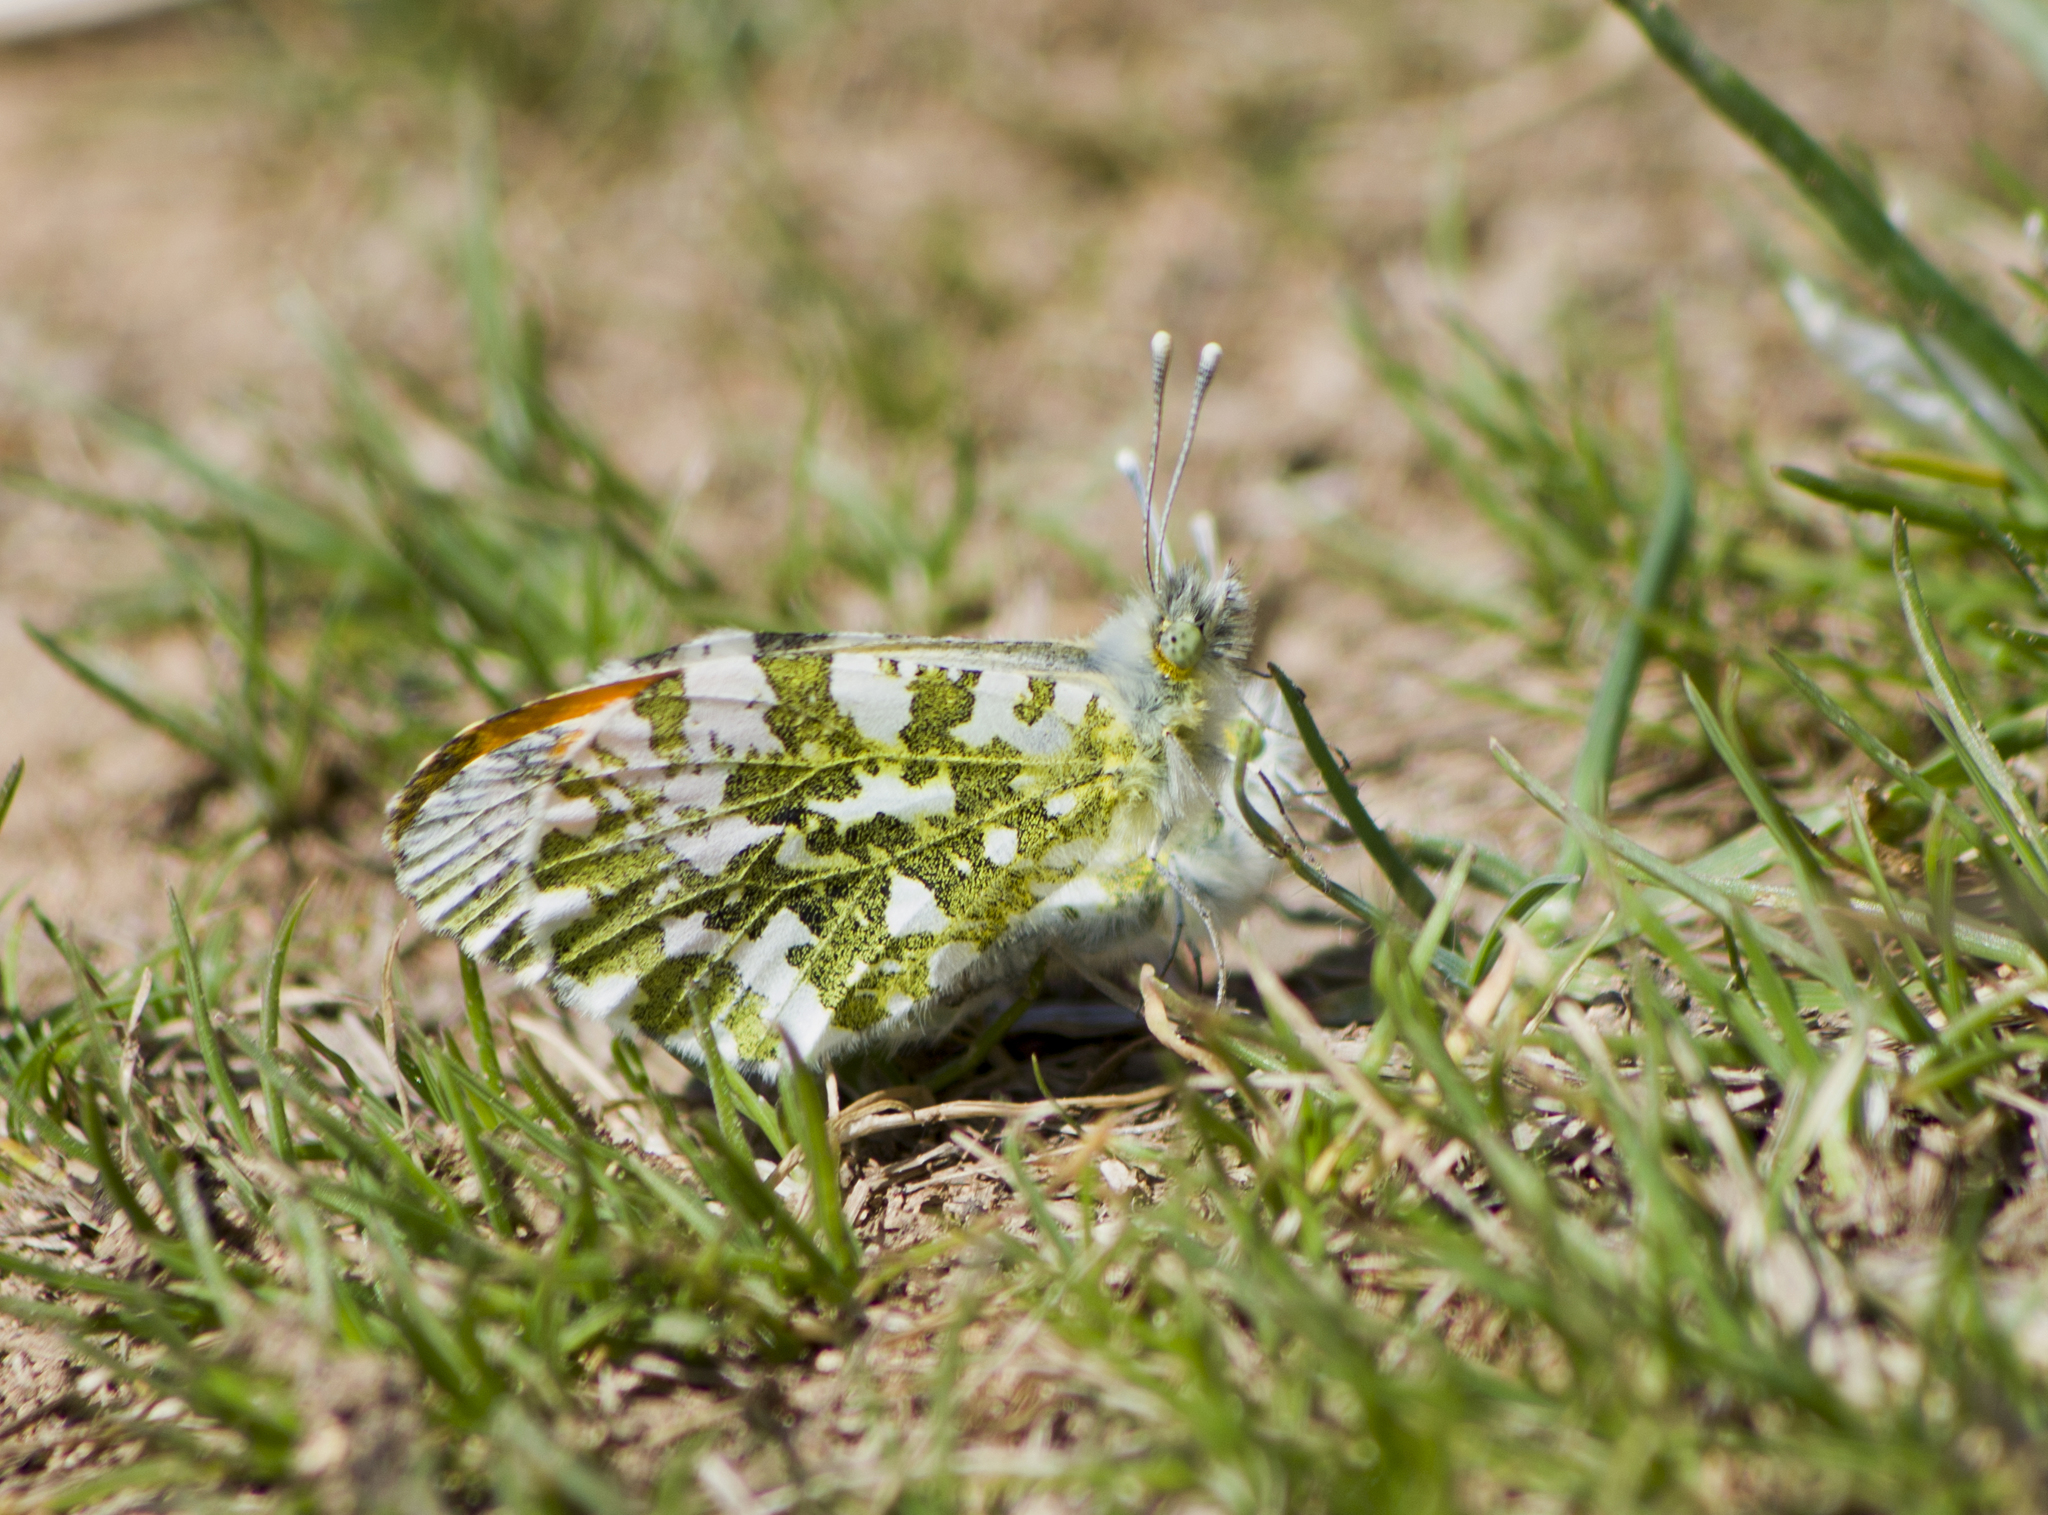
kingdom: Animalia
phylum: Arthropoda
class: Insecta
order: Lepidoptera
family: Pieridae
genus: Anthocharis
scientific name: Anthocharis cardamines
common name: Orange-tip
